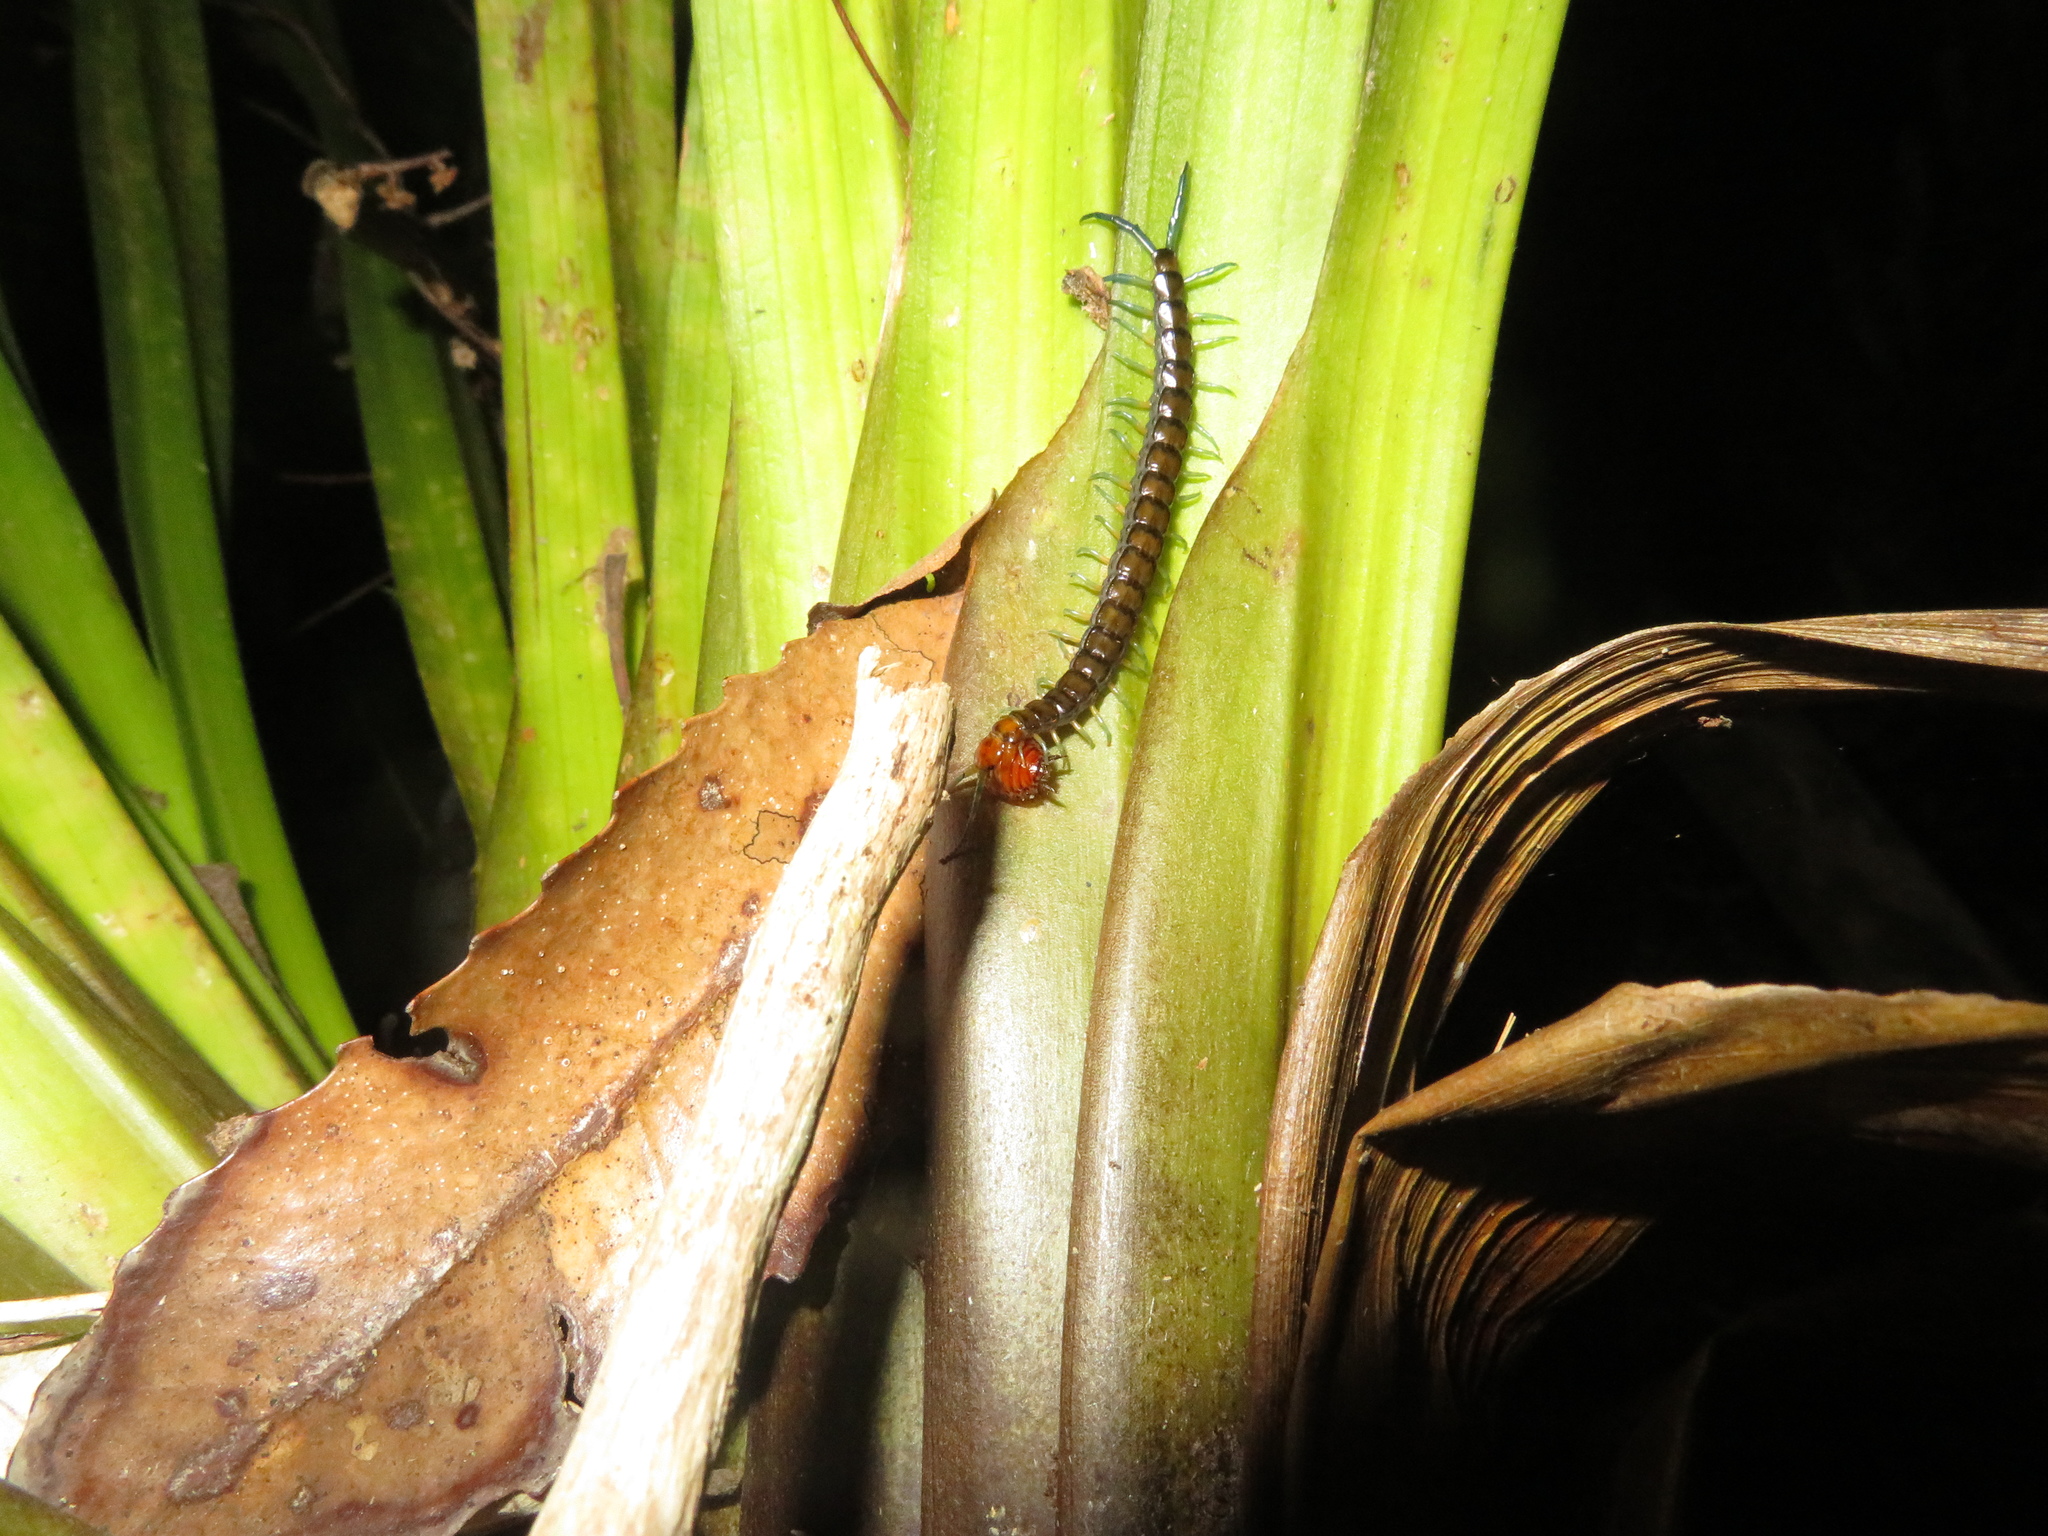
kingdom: Animalia
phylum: Arthropoda
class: Chilopoda
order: Scolopendromorpha
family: Scolopendridae
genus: Cormocephalus
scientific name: Cormocephalus rubriceps
